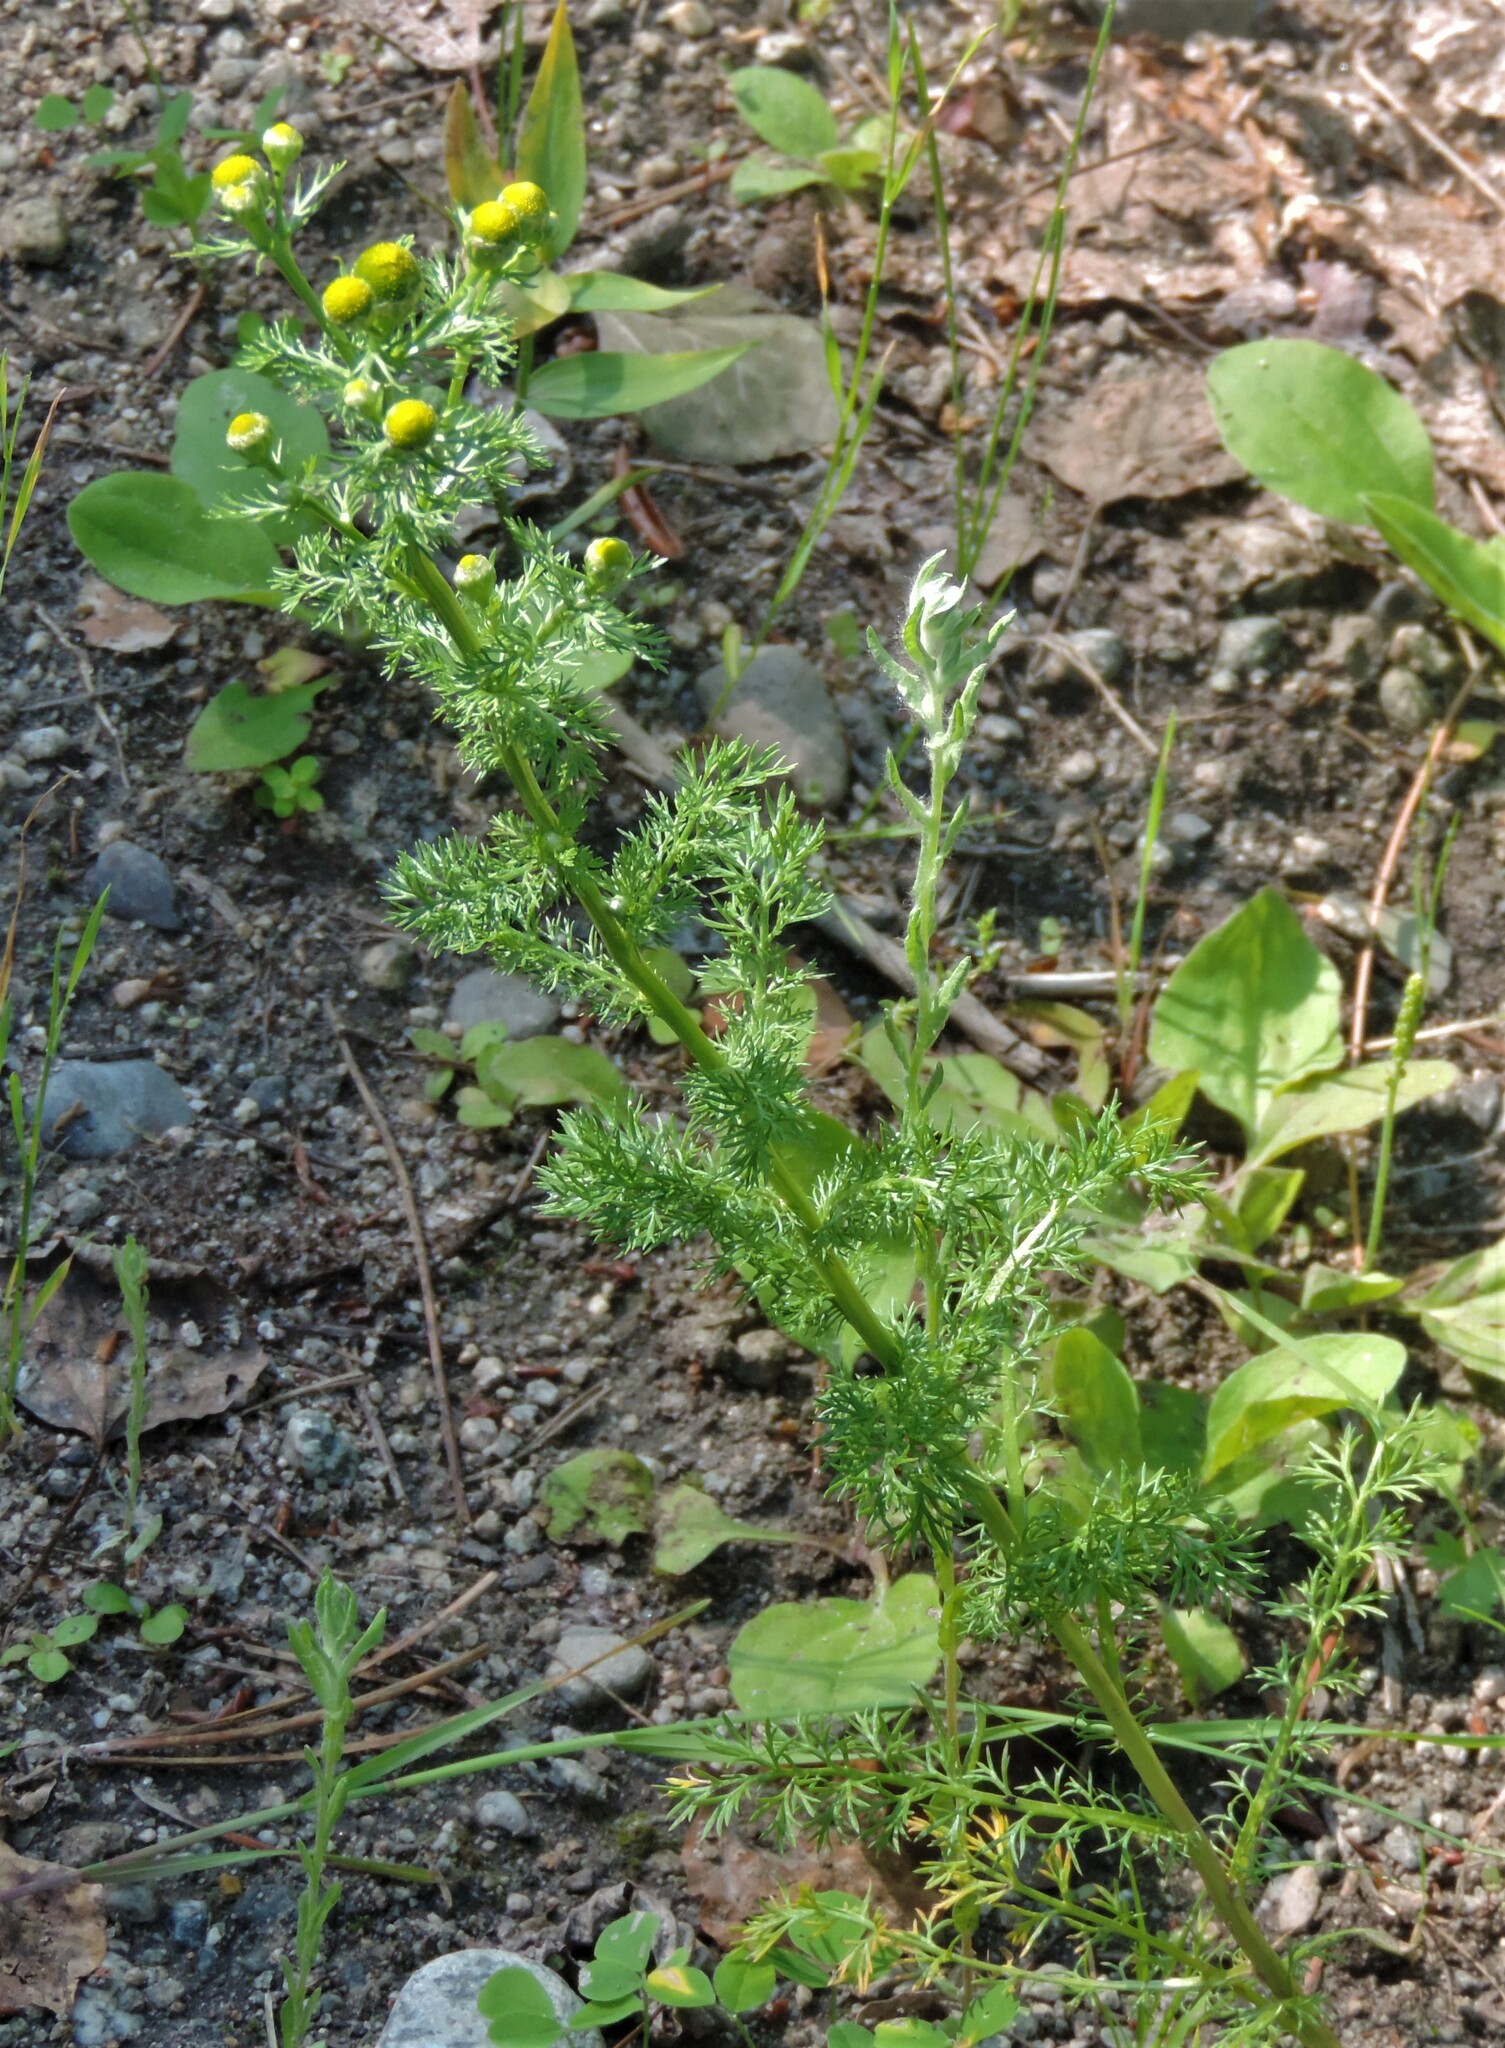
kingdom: Plantae
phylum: Tracheophyta
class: Magnoliopsida
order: Asterales
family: Asteraceae
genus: Matricaria
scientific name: Matricaria discoidea
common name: Disc mayweed
